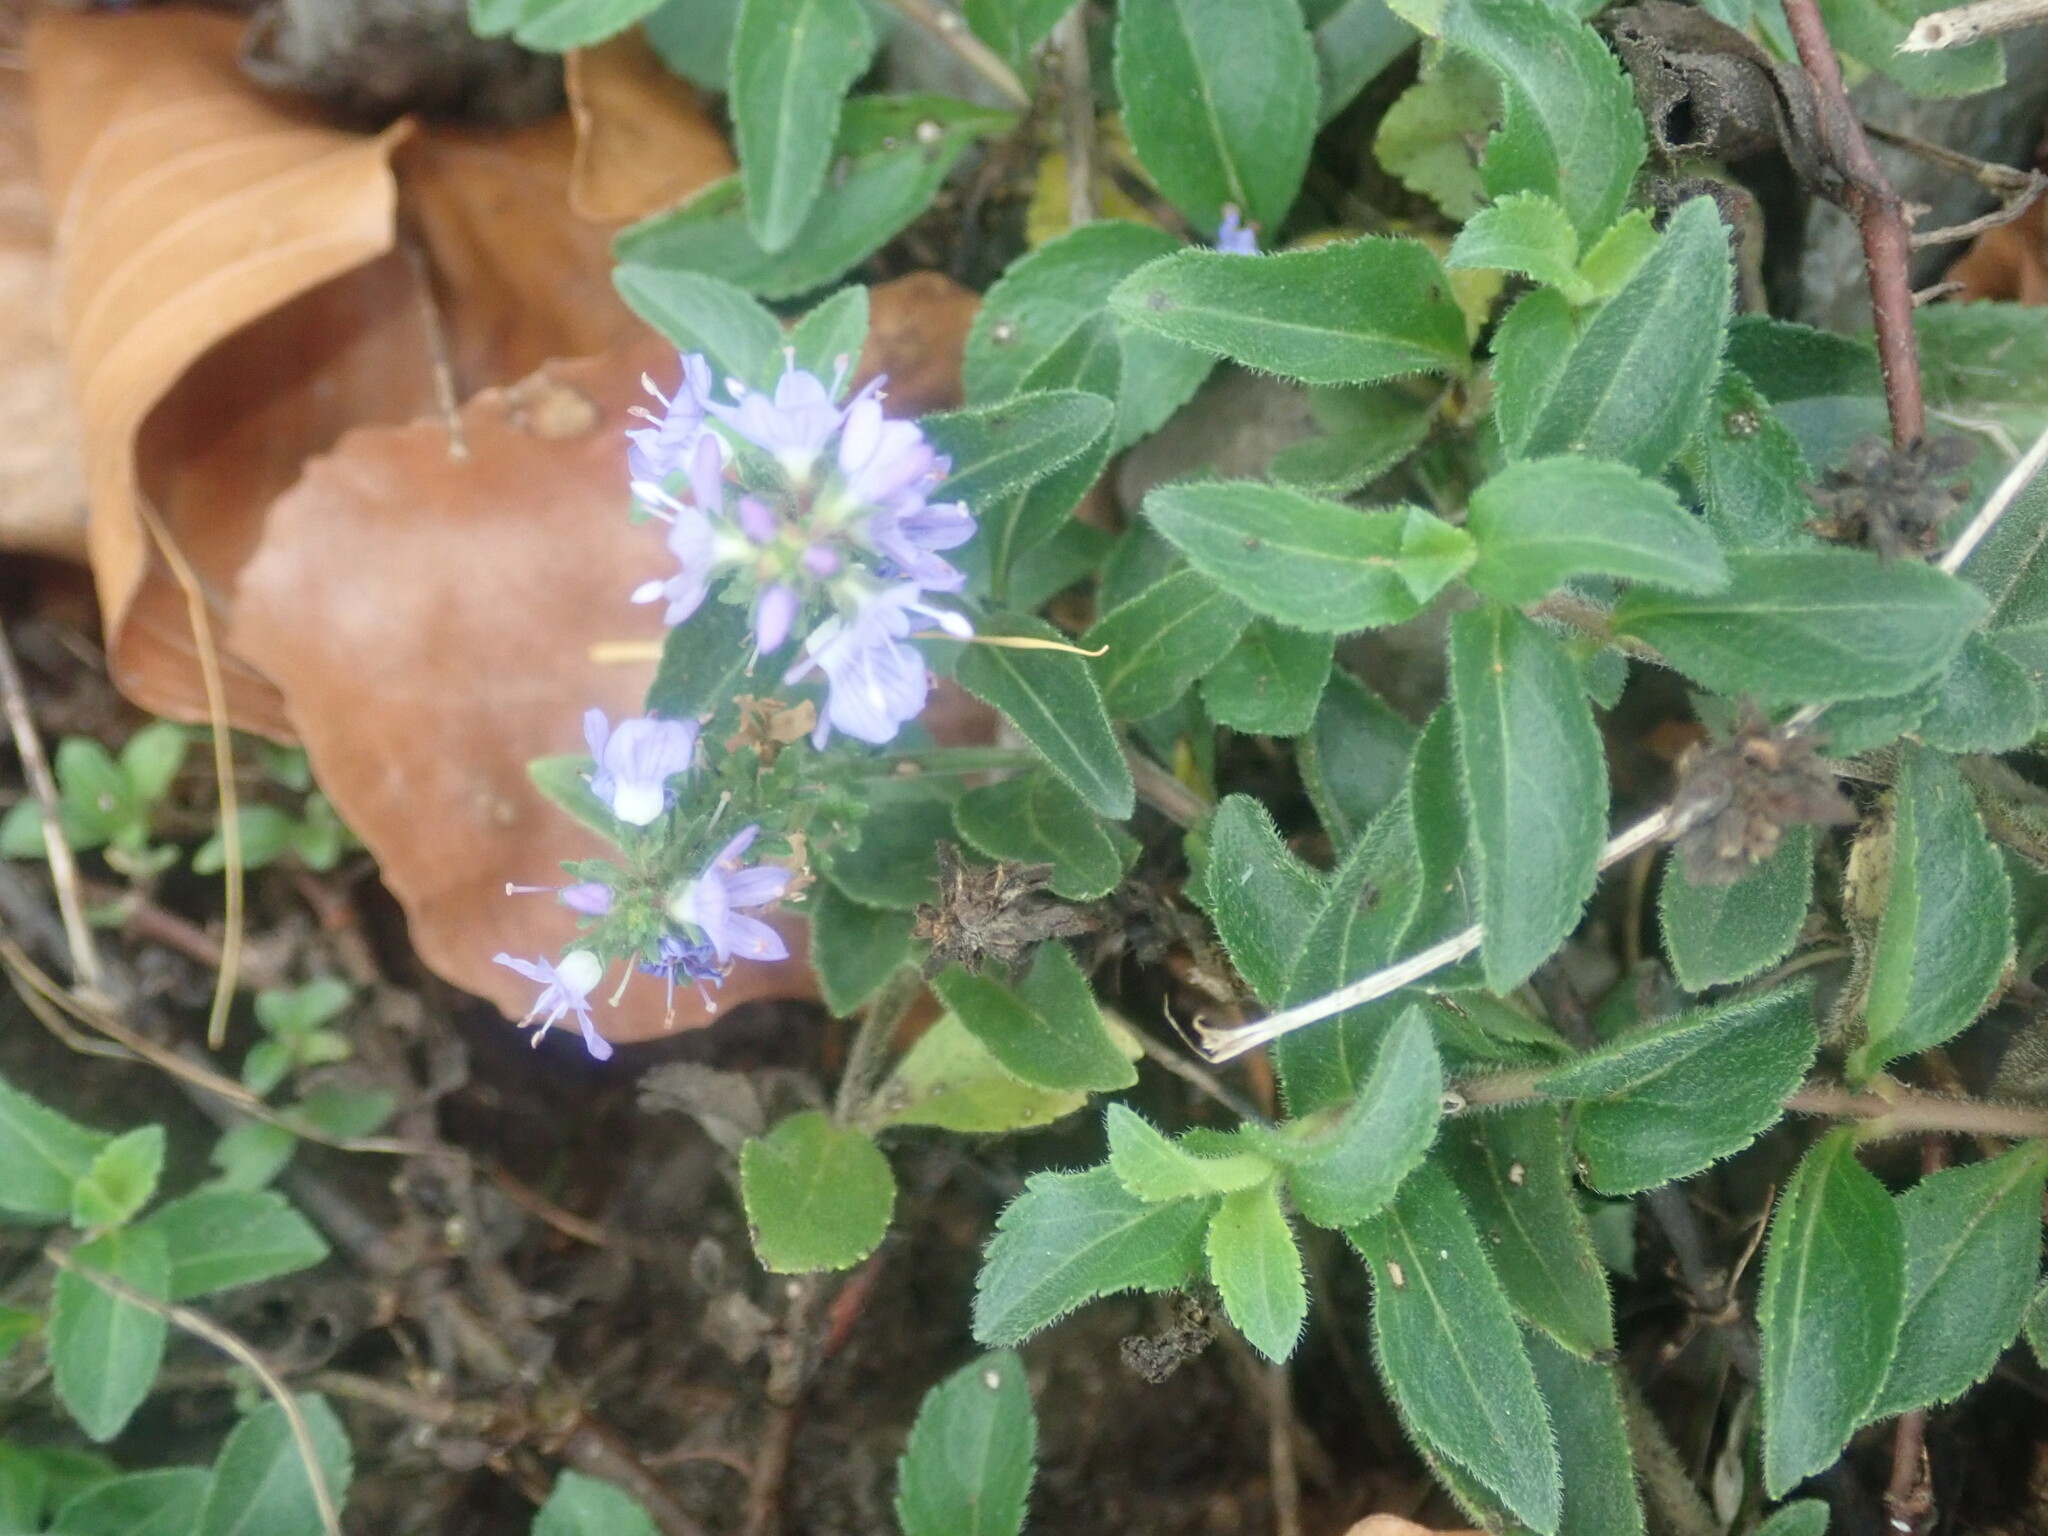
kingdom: Plantae
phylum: Tracheophyta
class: Magnoliopsida
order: Lamiales
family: Plantaginaceae
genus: Veronica
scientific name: Veronica officinalis
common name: Common speedwell
